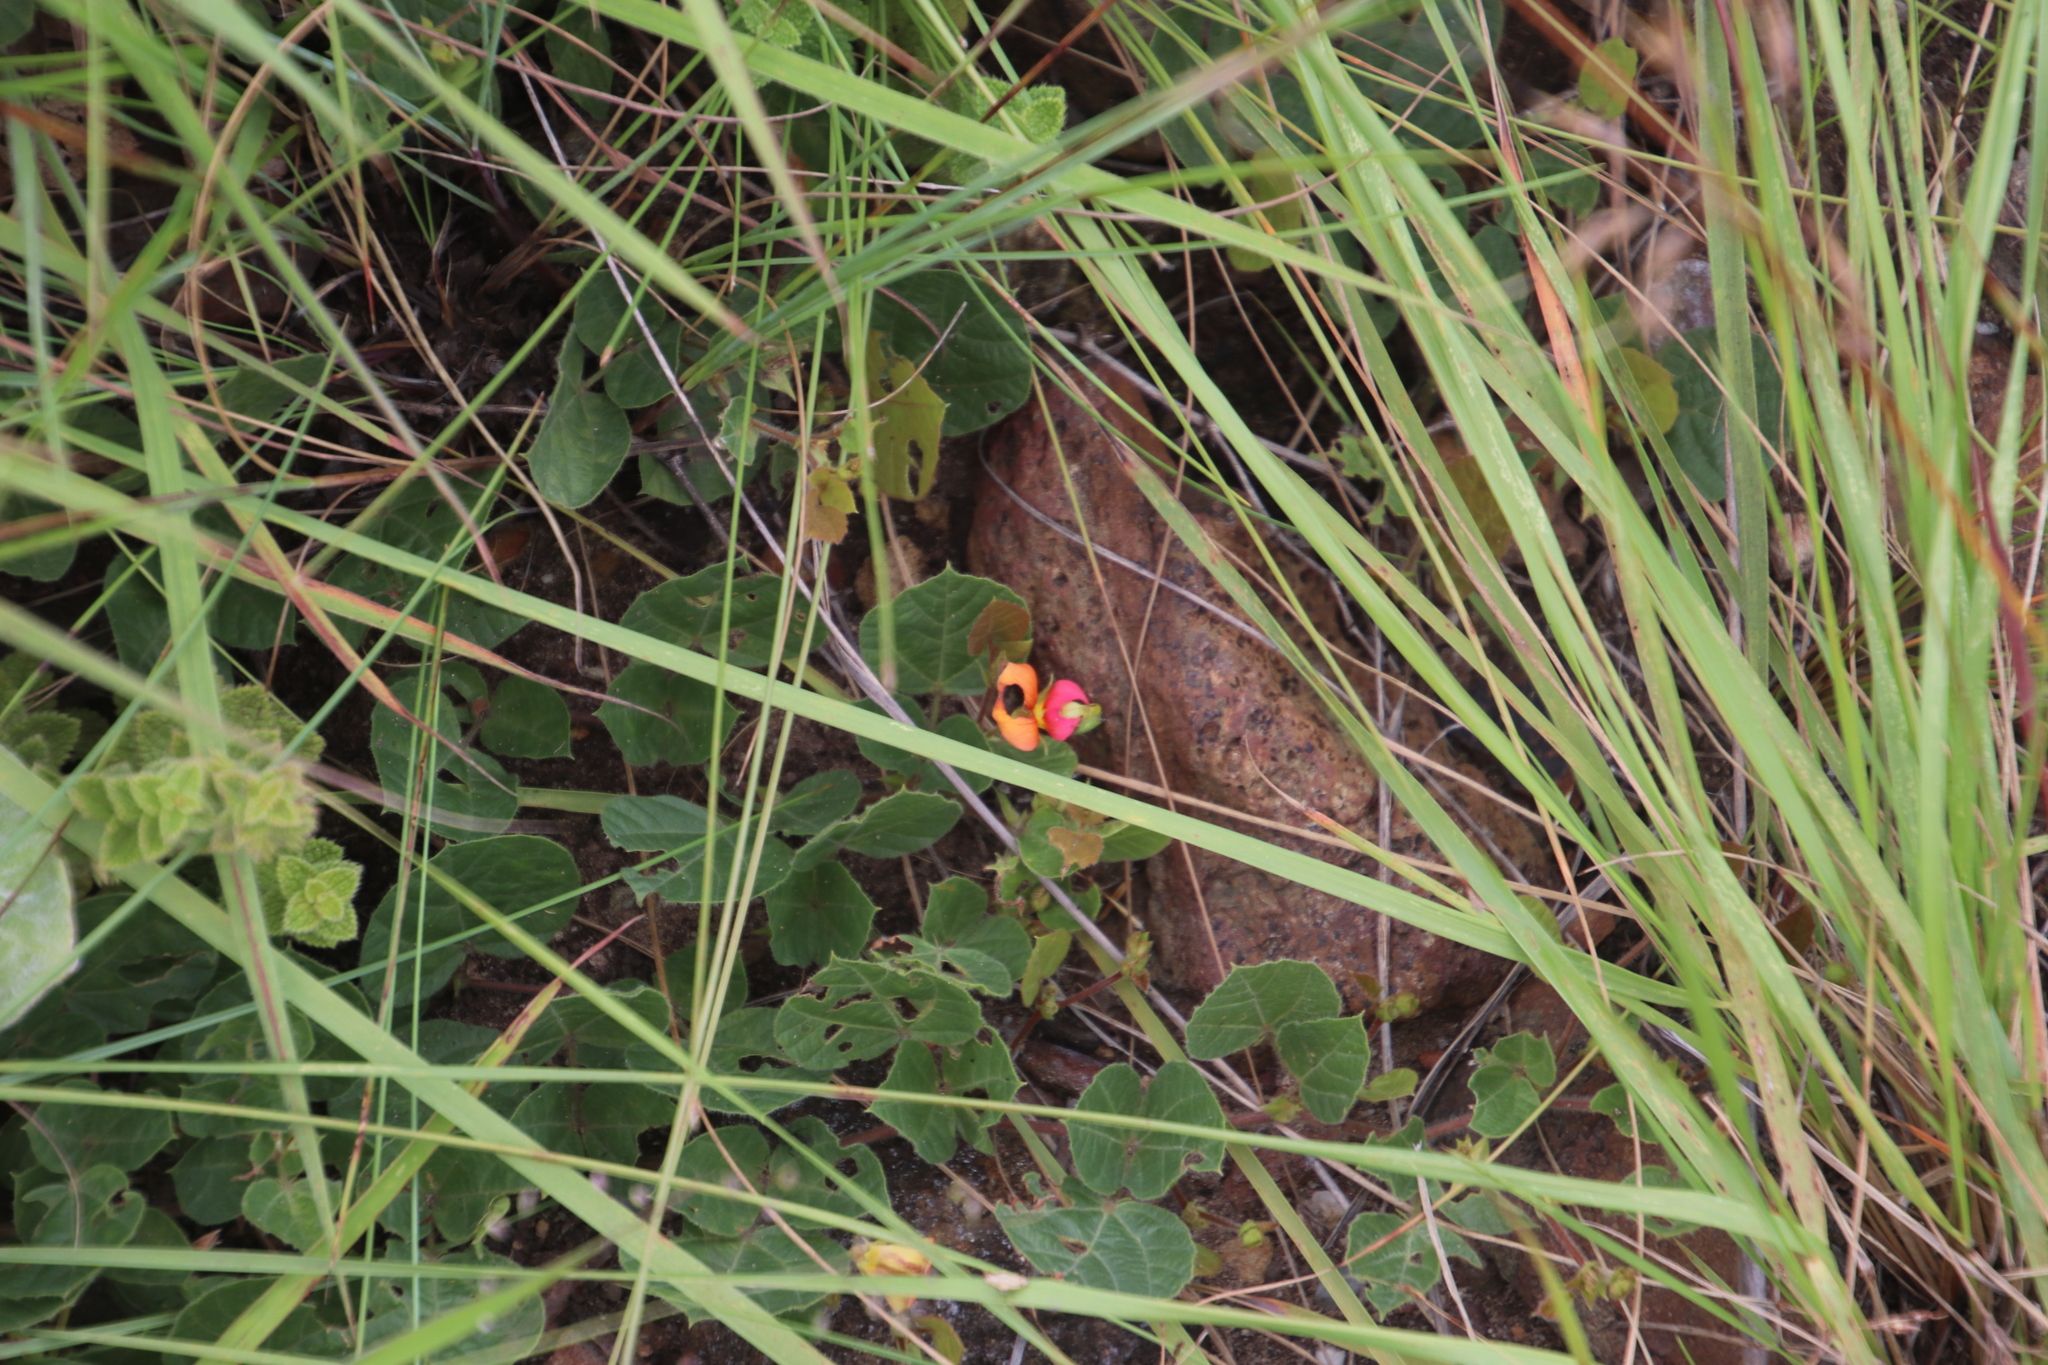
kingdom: Plantae
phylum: Tracheophyta
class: Magnoliopsida
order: Fabales
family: Fabaceae
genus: Rhynchosia
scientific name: Rhynchosia monophylla
